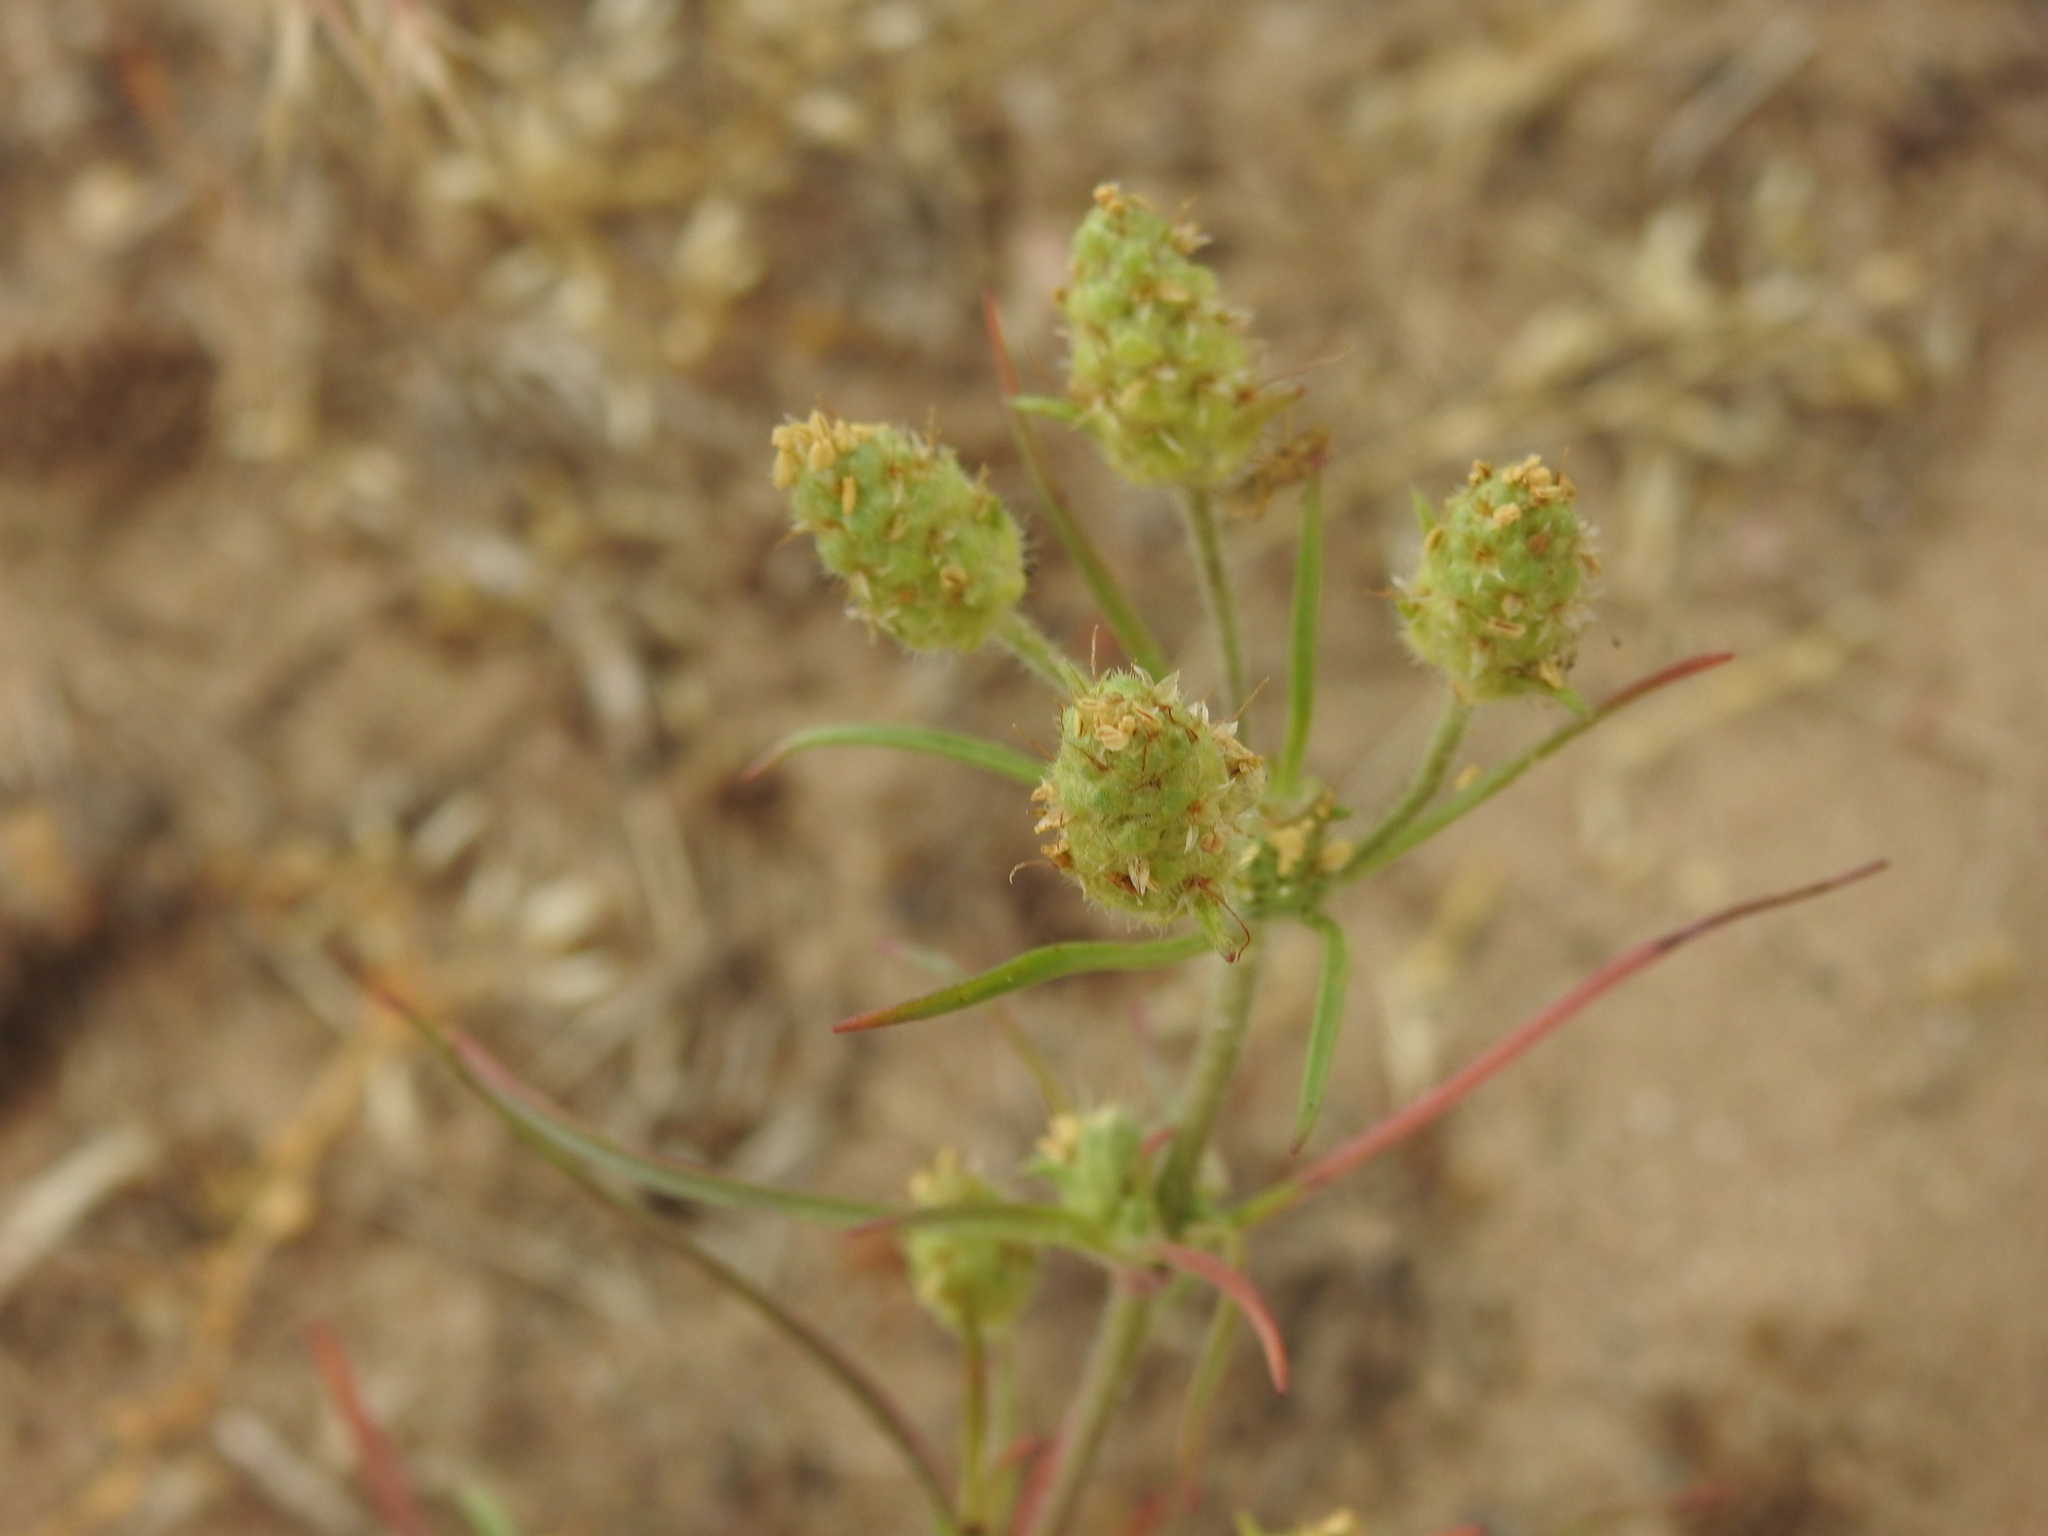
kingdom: Plantae
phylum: Tracheophyta
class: Magnoliopsida
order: Lamiales
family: Plantaginaceae
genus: Plantago
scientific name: Plantago arenaria
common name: Branched plantain
